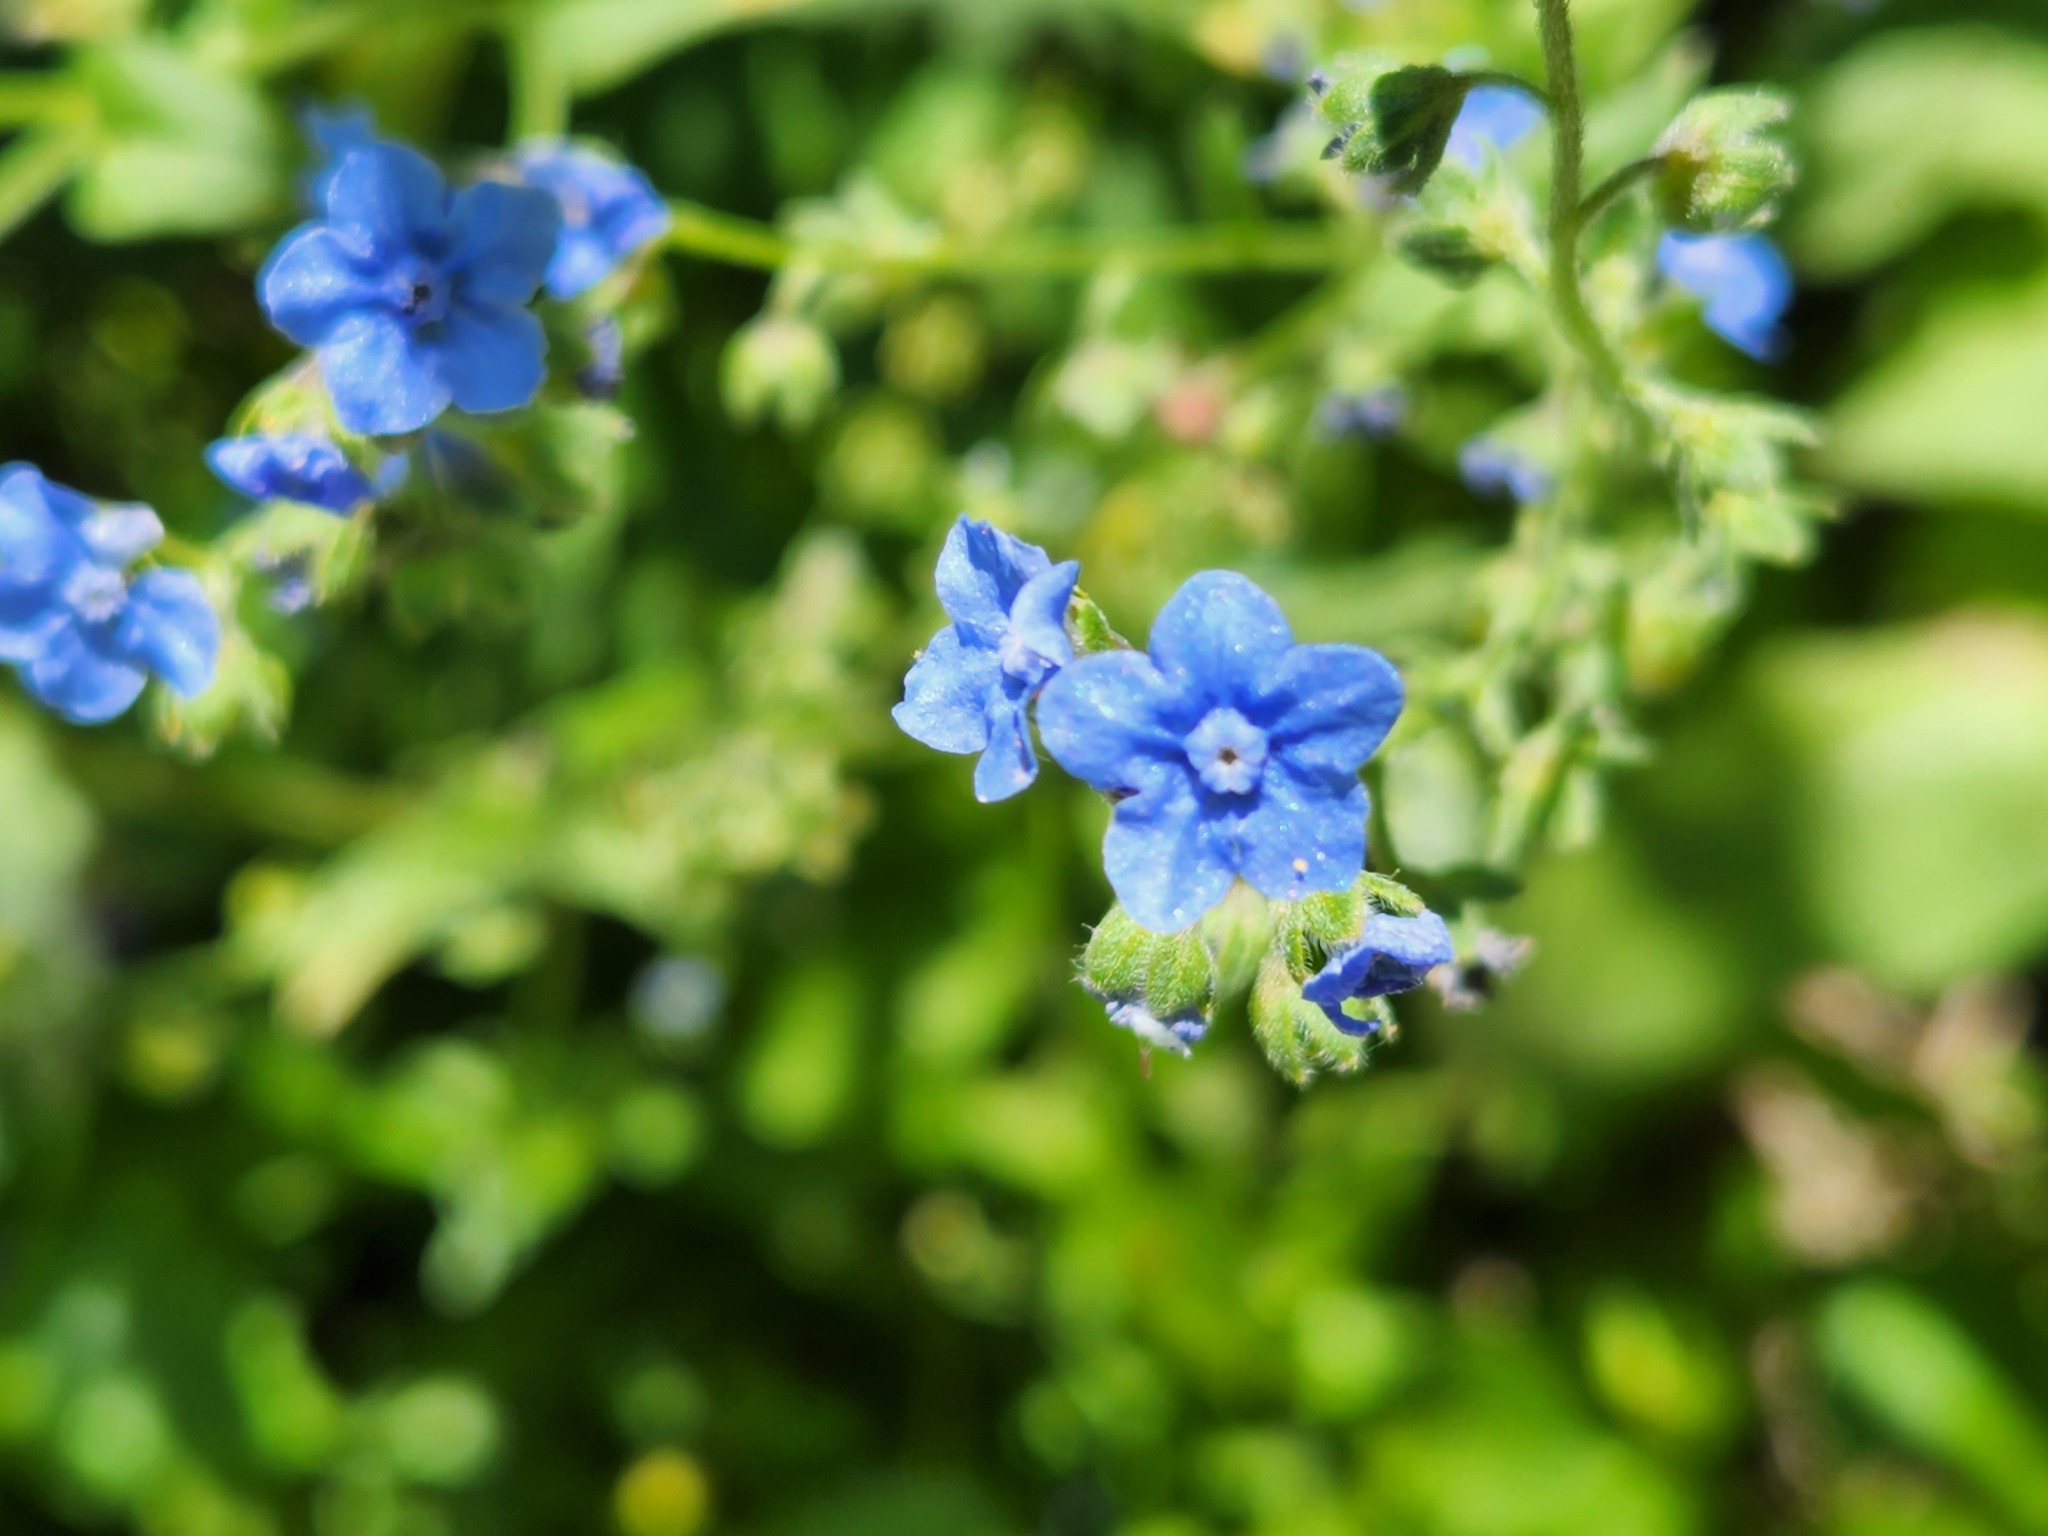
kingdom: Plantae
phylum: Tracheophyta
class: Magnoliopsida
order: Boraginales
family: Boraginaceae
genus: Cynoglossum
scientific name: Cynoglossum amabile
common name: Chinese hound's tongue
